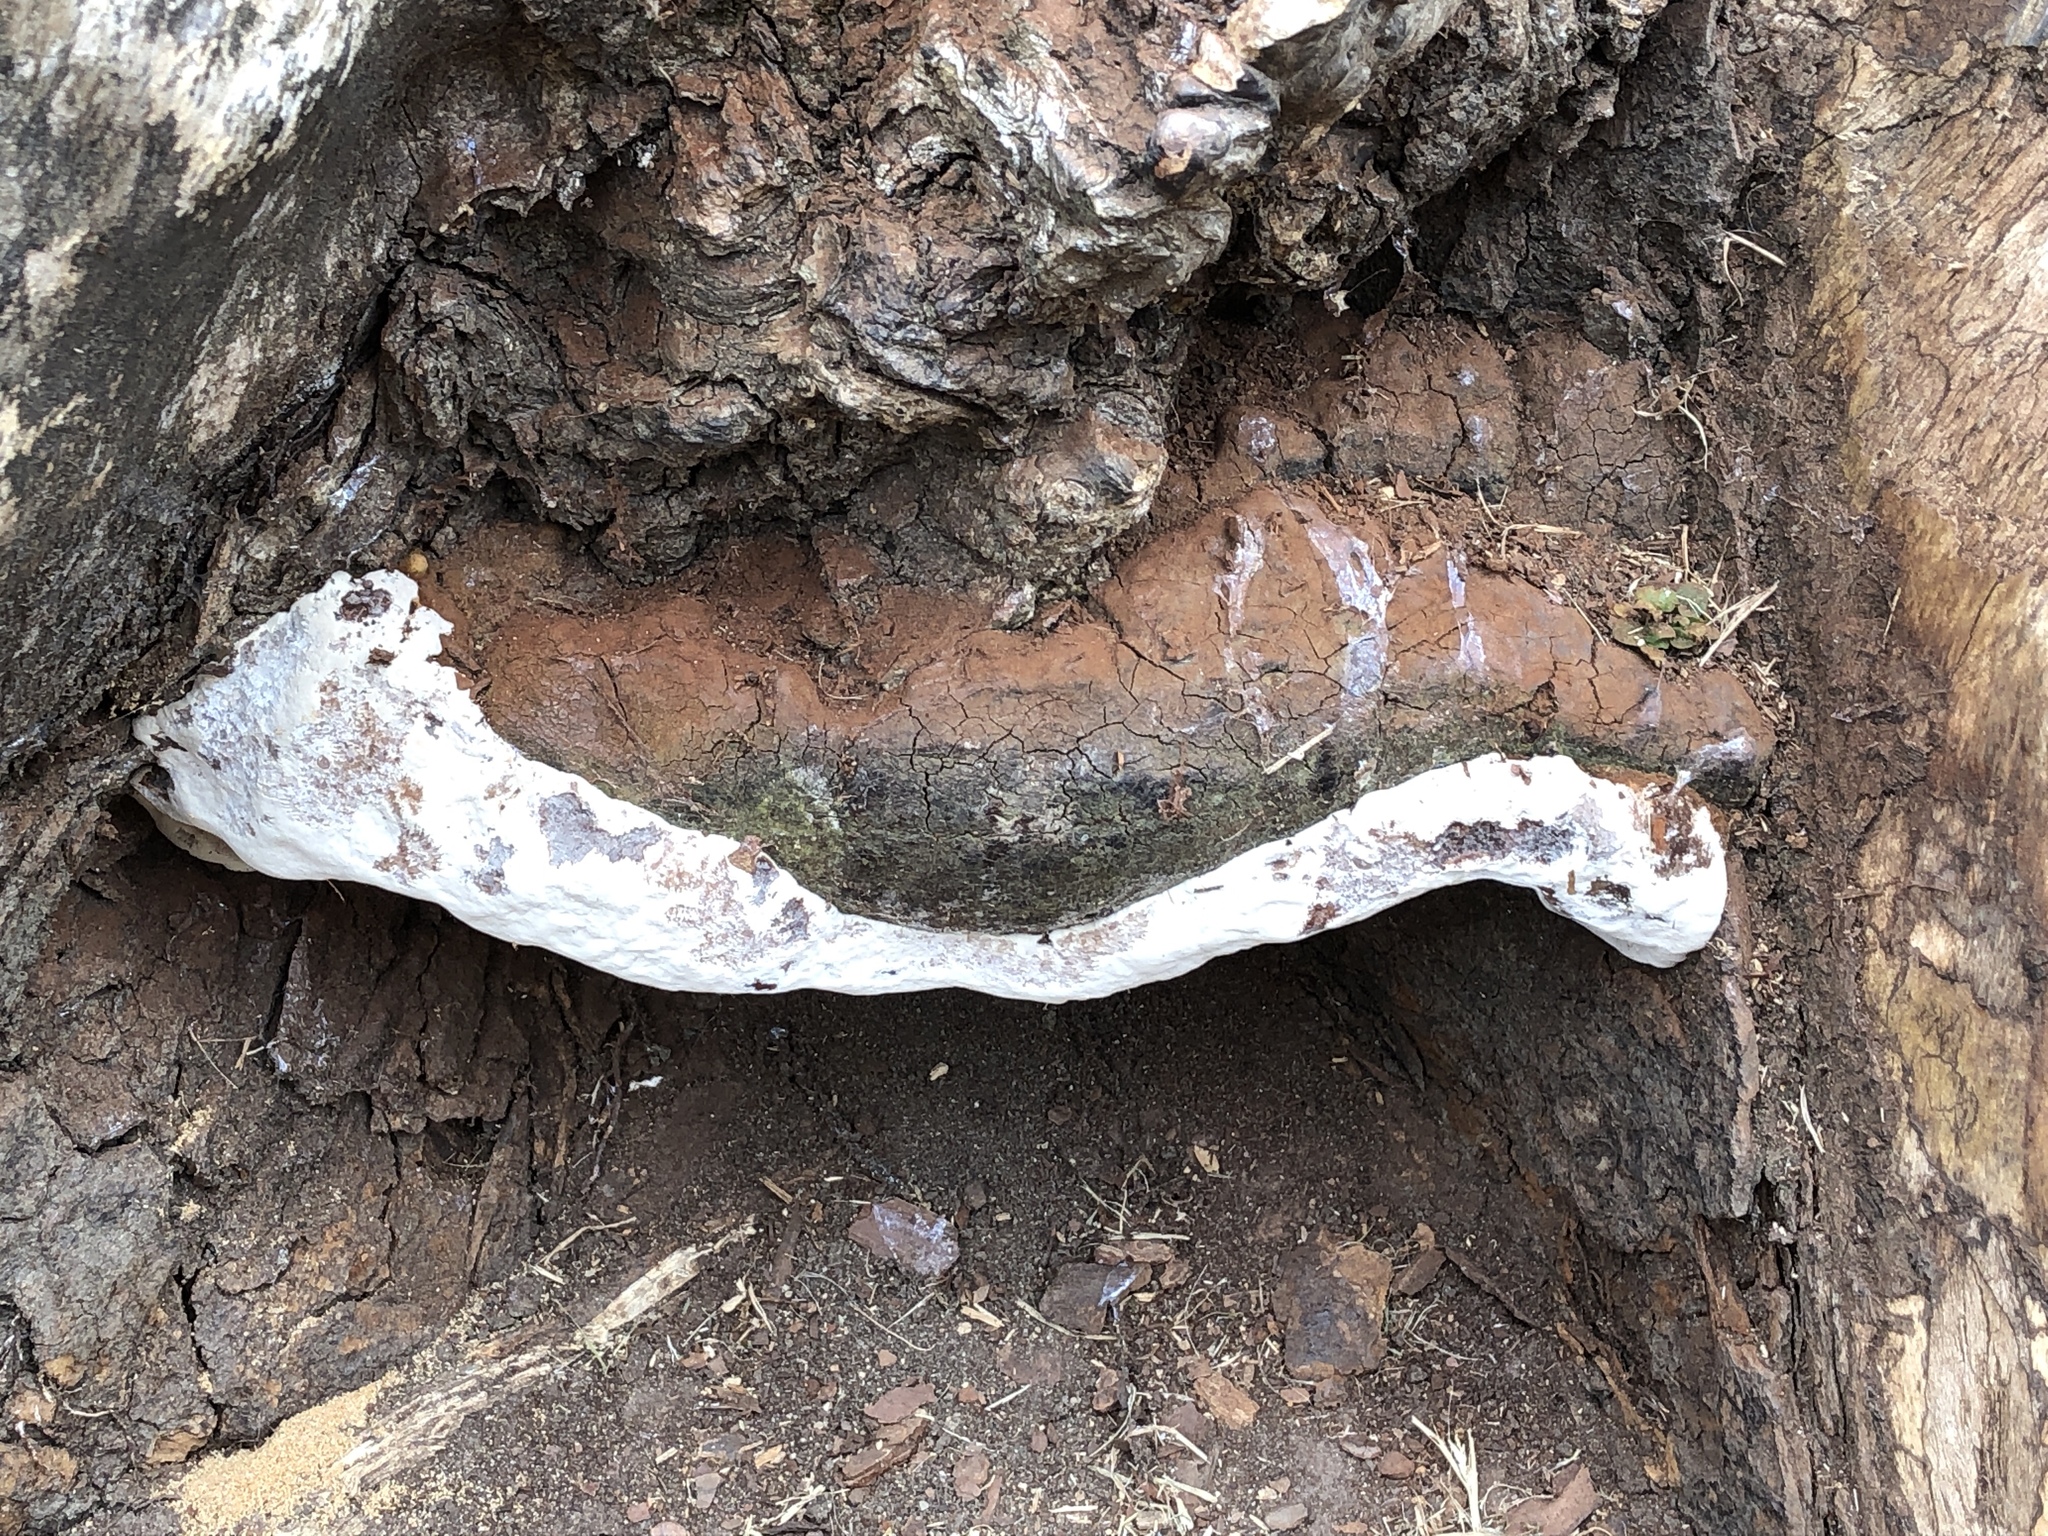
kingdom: Fungi
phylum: Basidiomycota
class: Agaricomycetes
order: Polyporales
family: Polyporaceae
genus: Ganoderma
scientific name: Ganoderma applanatum
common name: Artist's bracket
